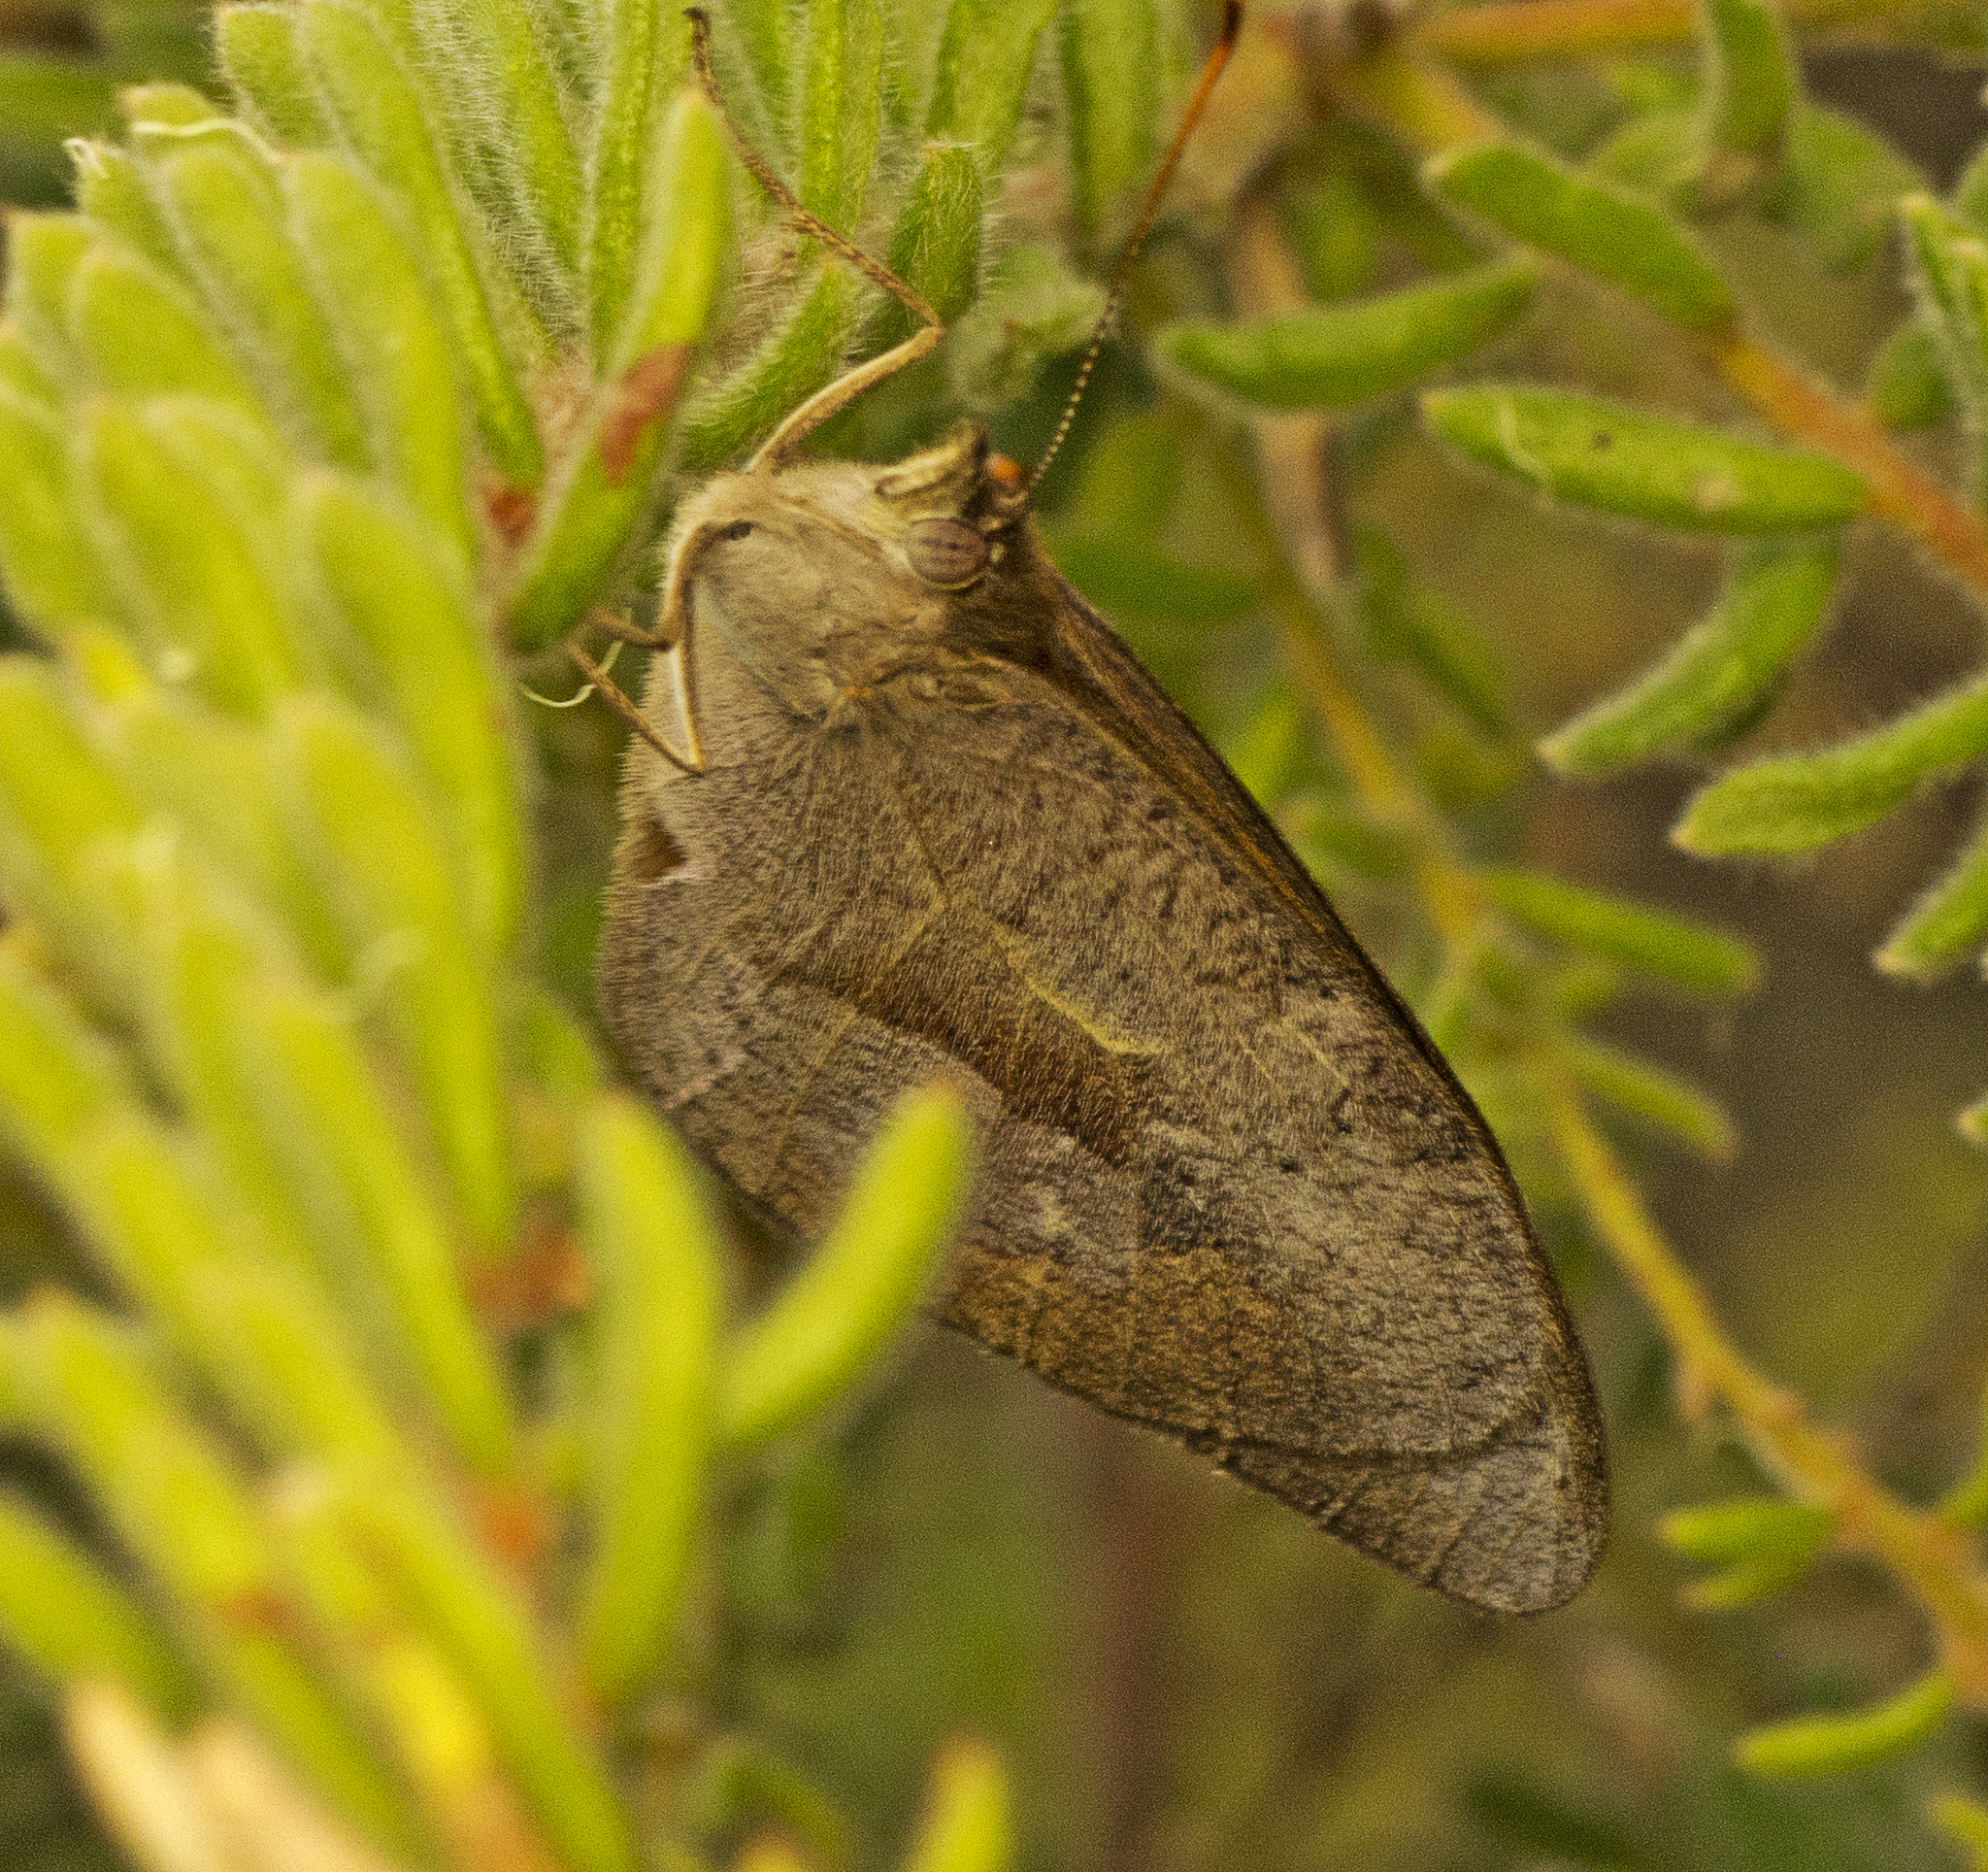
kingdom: Animalia
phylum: Arthropoda
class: Insecta
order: Lepidoptera
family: Nymphalidae
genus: Heteronympha
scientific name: Heteronympha merope
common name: Common brown
